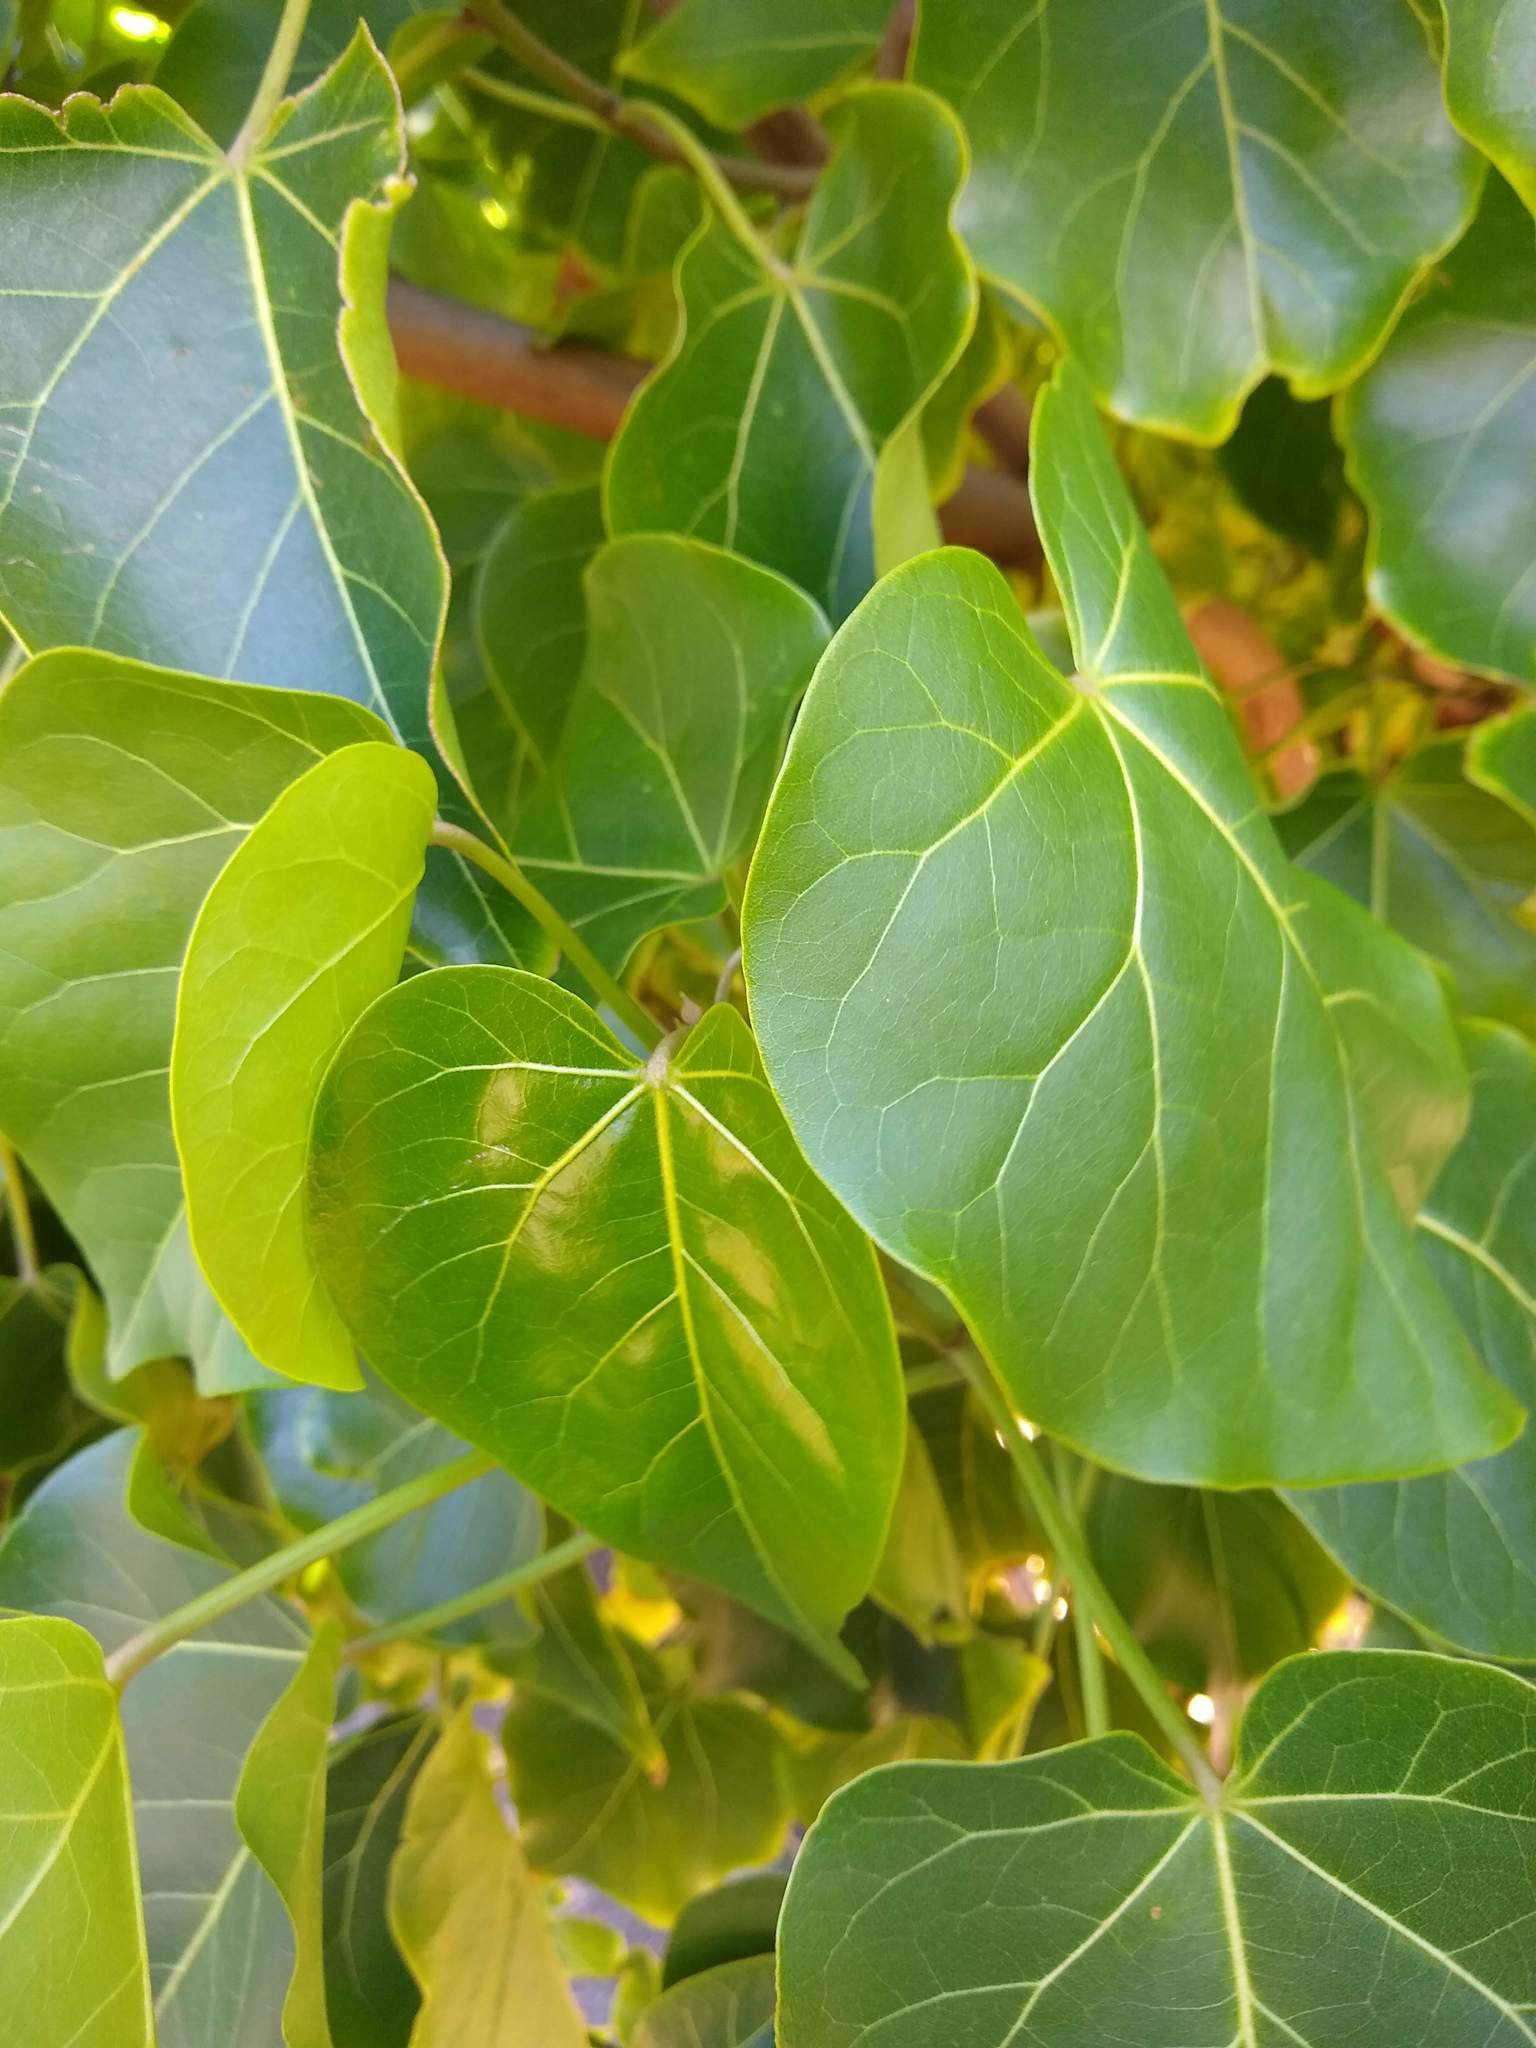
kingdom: Plantae
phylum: Tracheophyta
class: Magnoliopsida
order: Malvales
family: Malvaceae
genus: Thespesia
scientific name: Thespesia populnea
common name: Seaside mahoe
